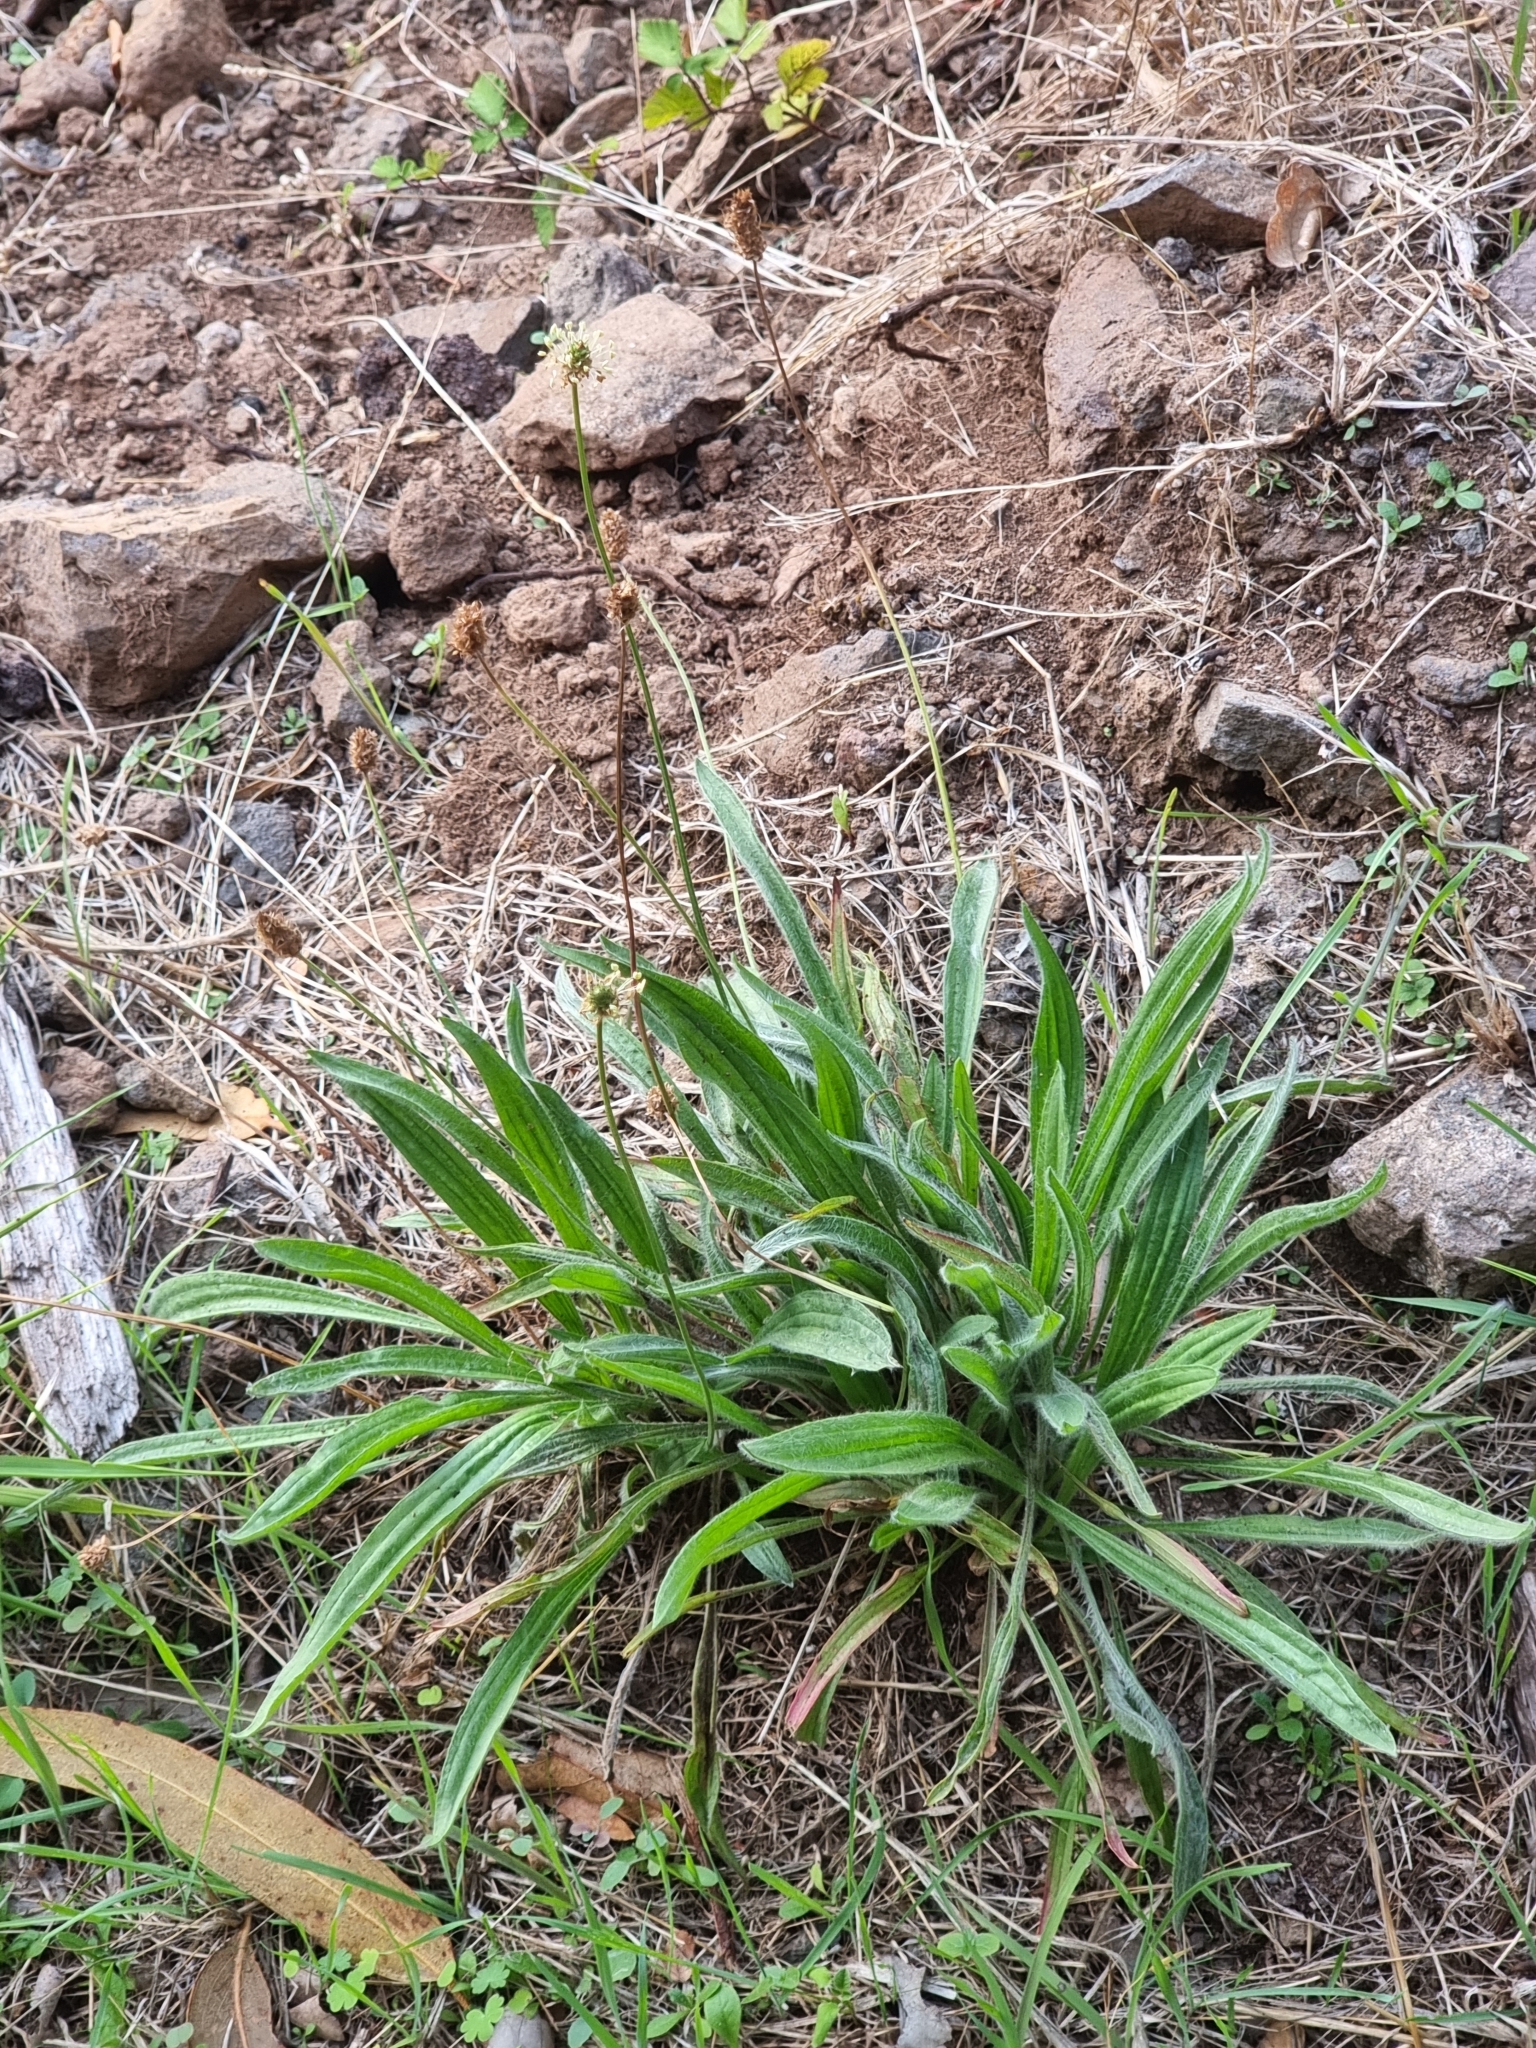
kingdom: Plantae
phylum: Tracheophyta
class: Magnoliopsida
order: Lamiales
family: Plantaginaceae
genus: Plantago
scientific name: Plantago lanceolata
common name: Ribwort plantain
